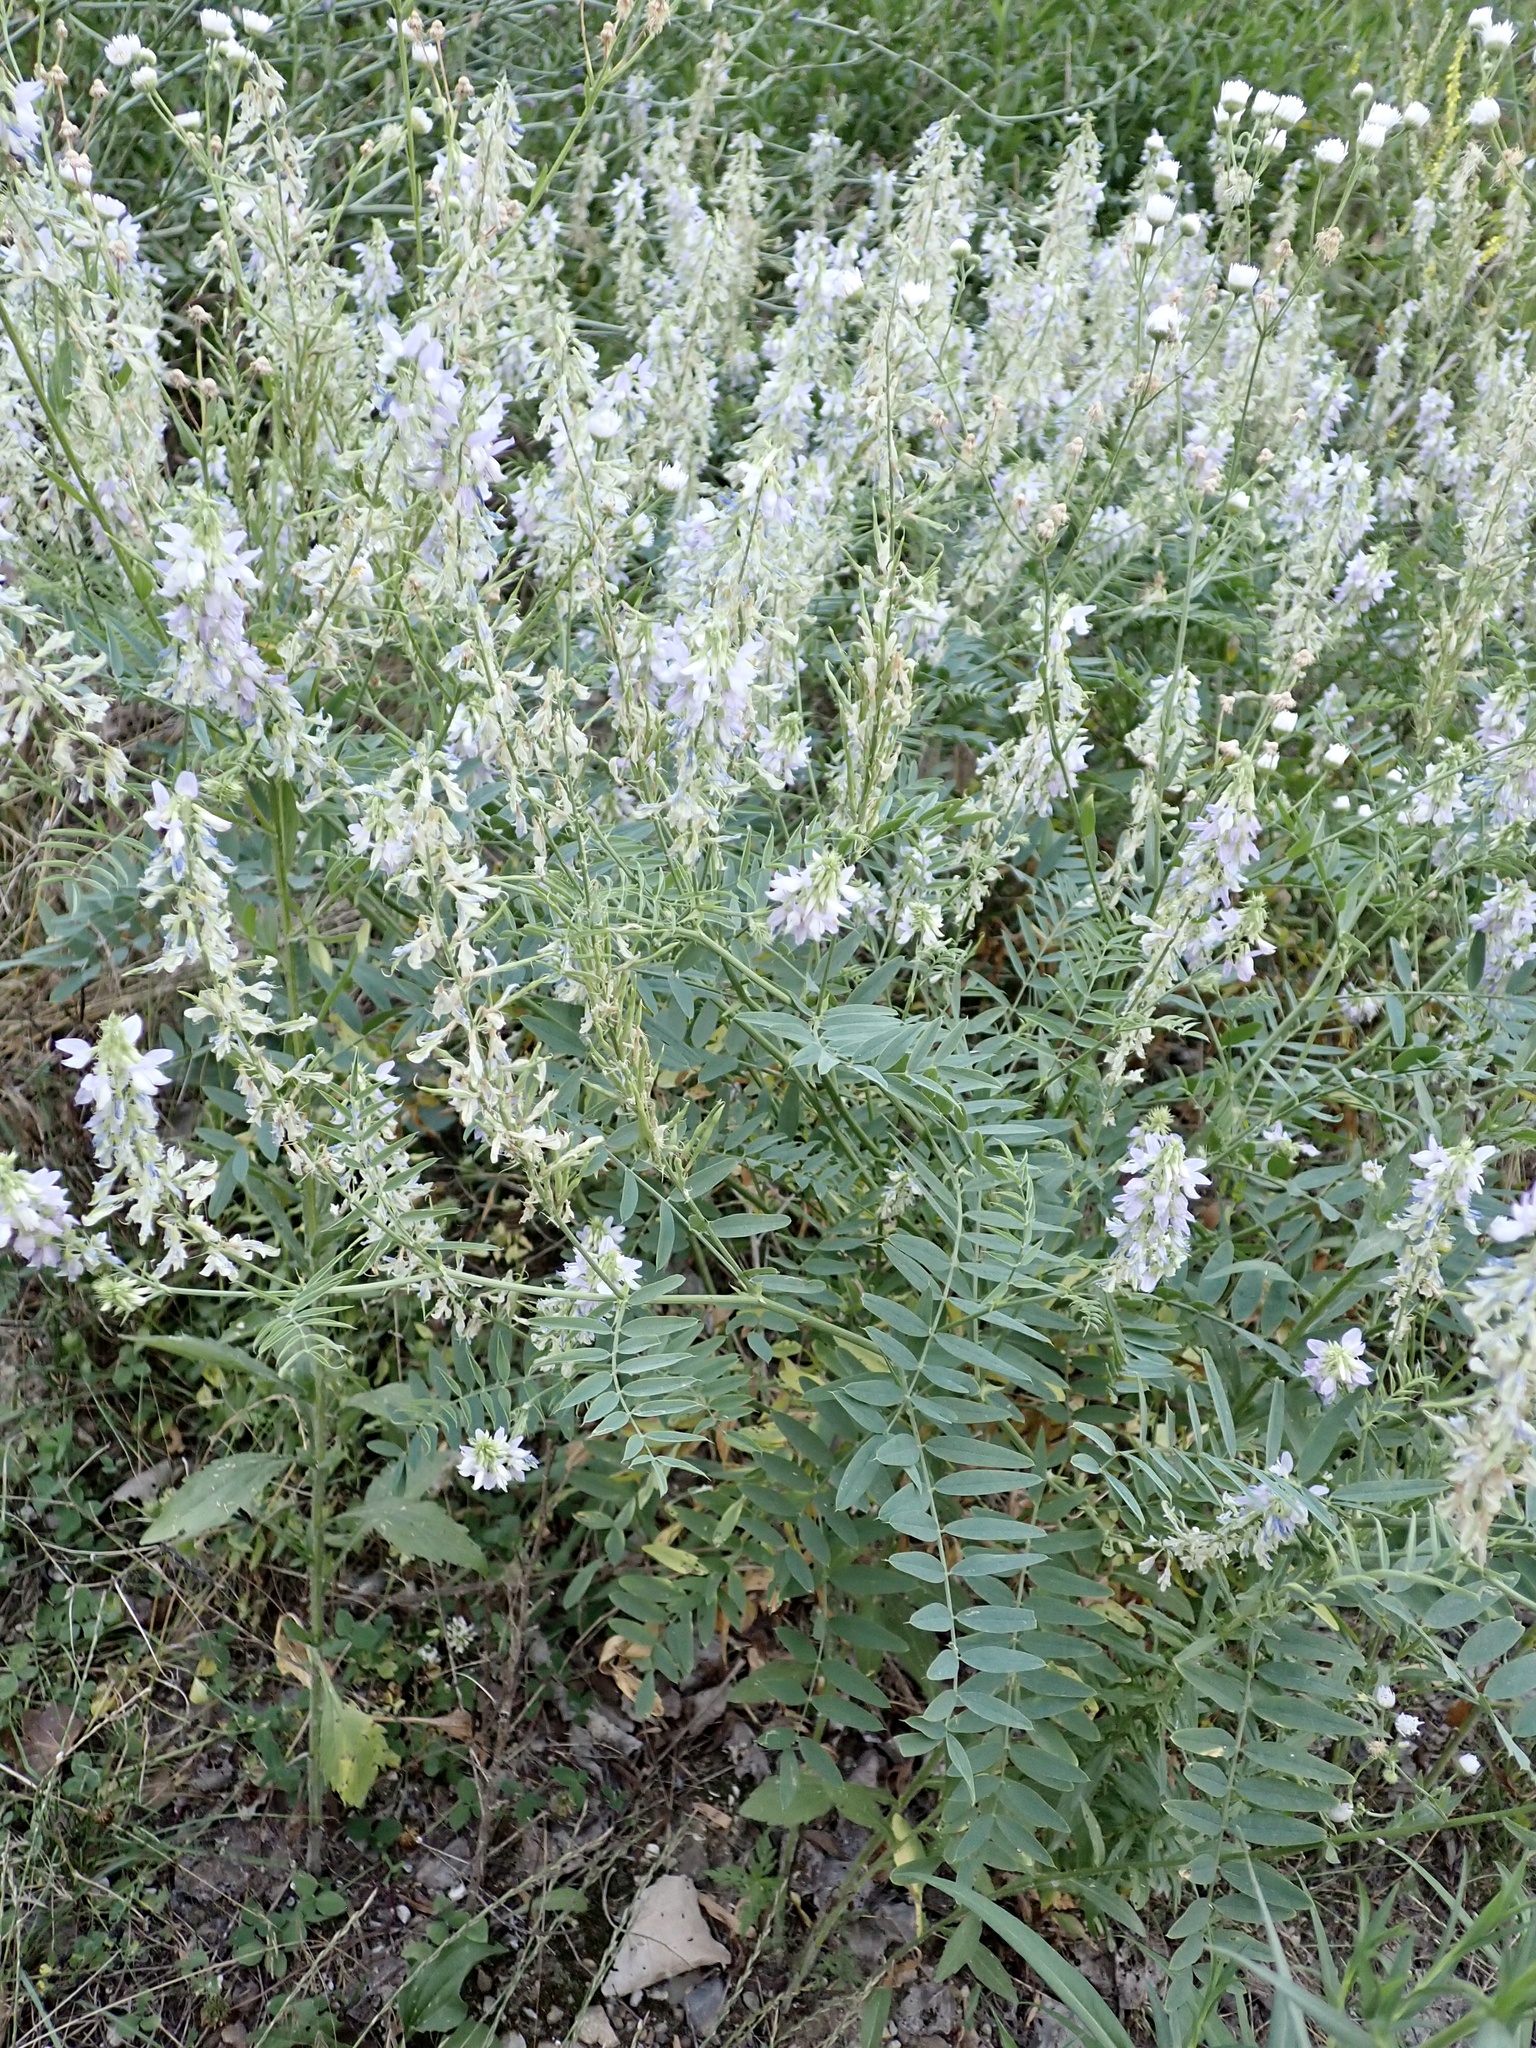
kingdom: Plantae
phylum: Tracheophyta
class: Magnoliopsida
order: Fabales
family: Fabaceae
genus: Galega
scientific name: Galega officinalis
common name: Goat's-rue
